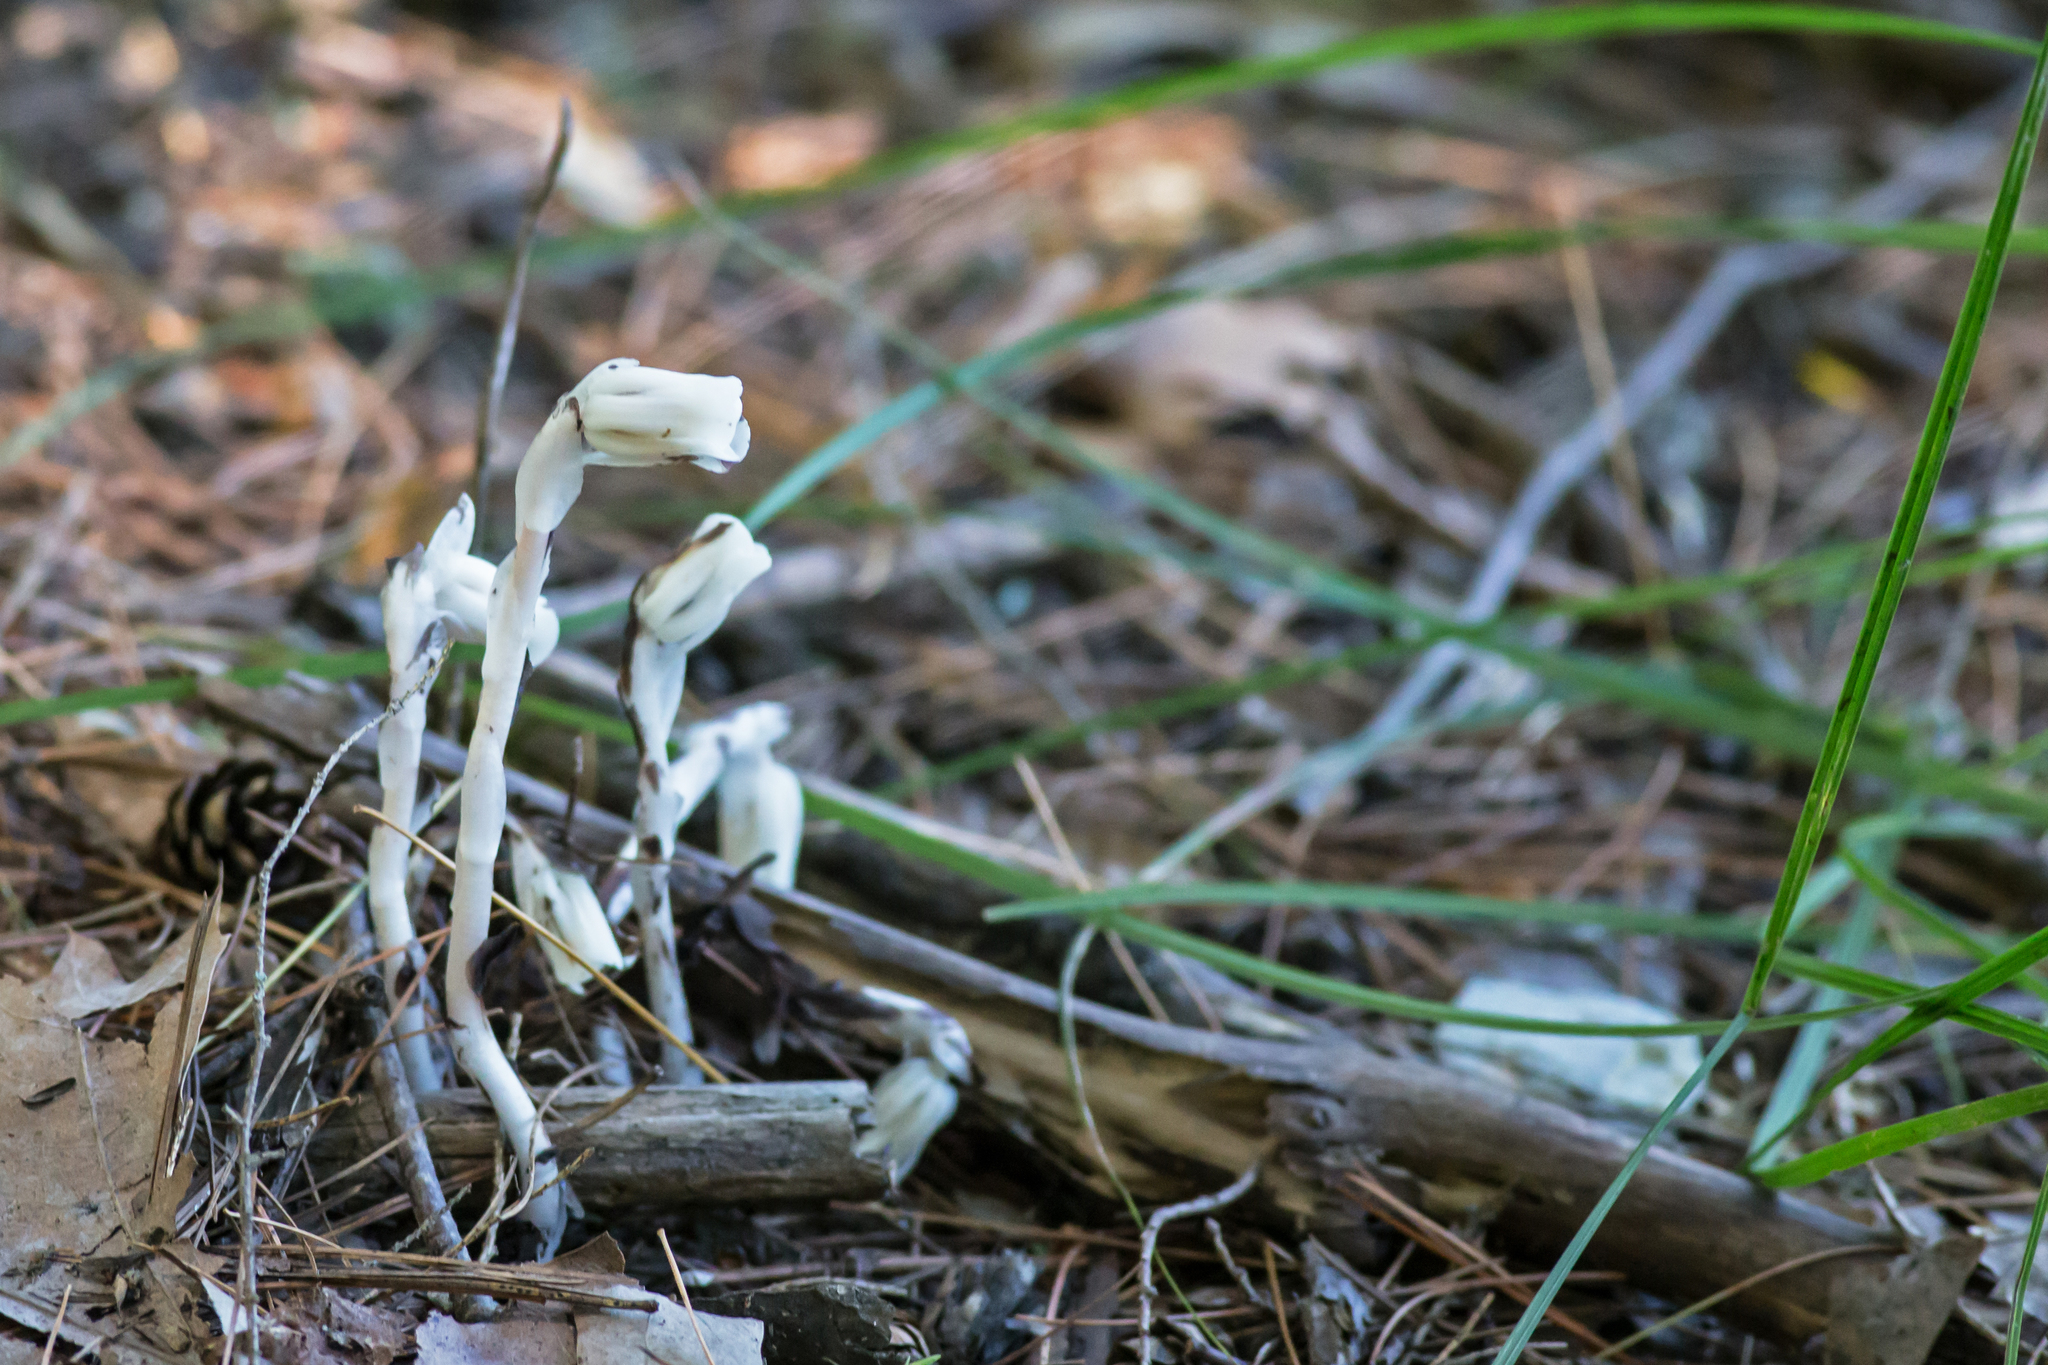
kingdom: Plantae
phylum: Tracheophyta
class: Magnoliopsida
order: Ericales
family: Ericaceae
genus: Monotropa
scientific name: Monotropa uniflora
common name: Convulsion root
